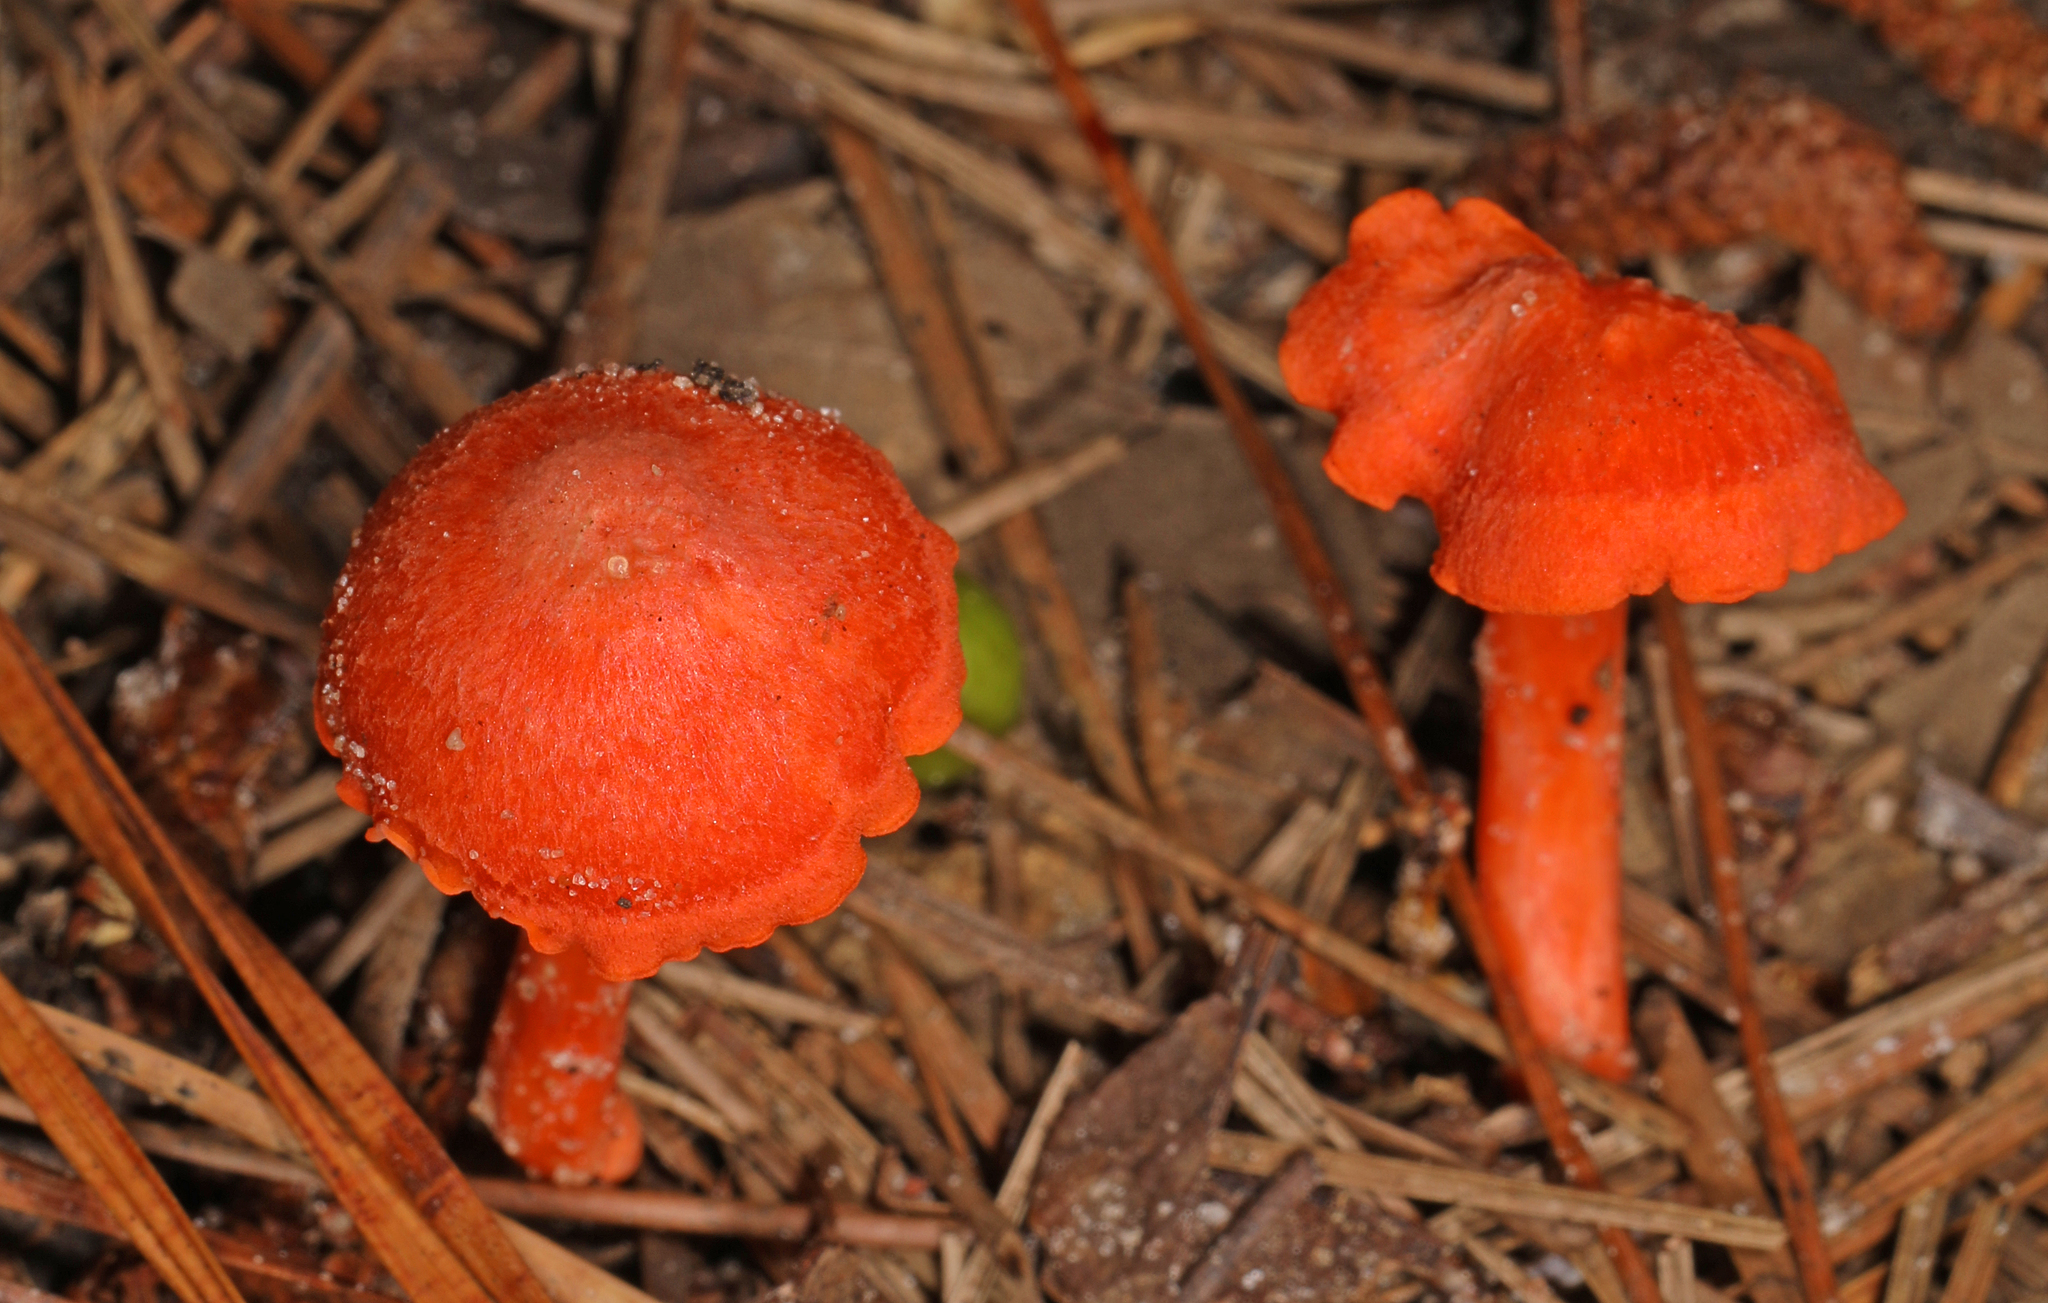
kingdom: Fungi
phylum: Basidiomycota
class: Agaricomycetes
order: Cantharellales
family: Hydnaceae
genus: Cantharellus
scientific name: Cantharellus cinnabarinus
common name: Cinnabar chanterelle
